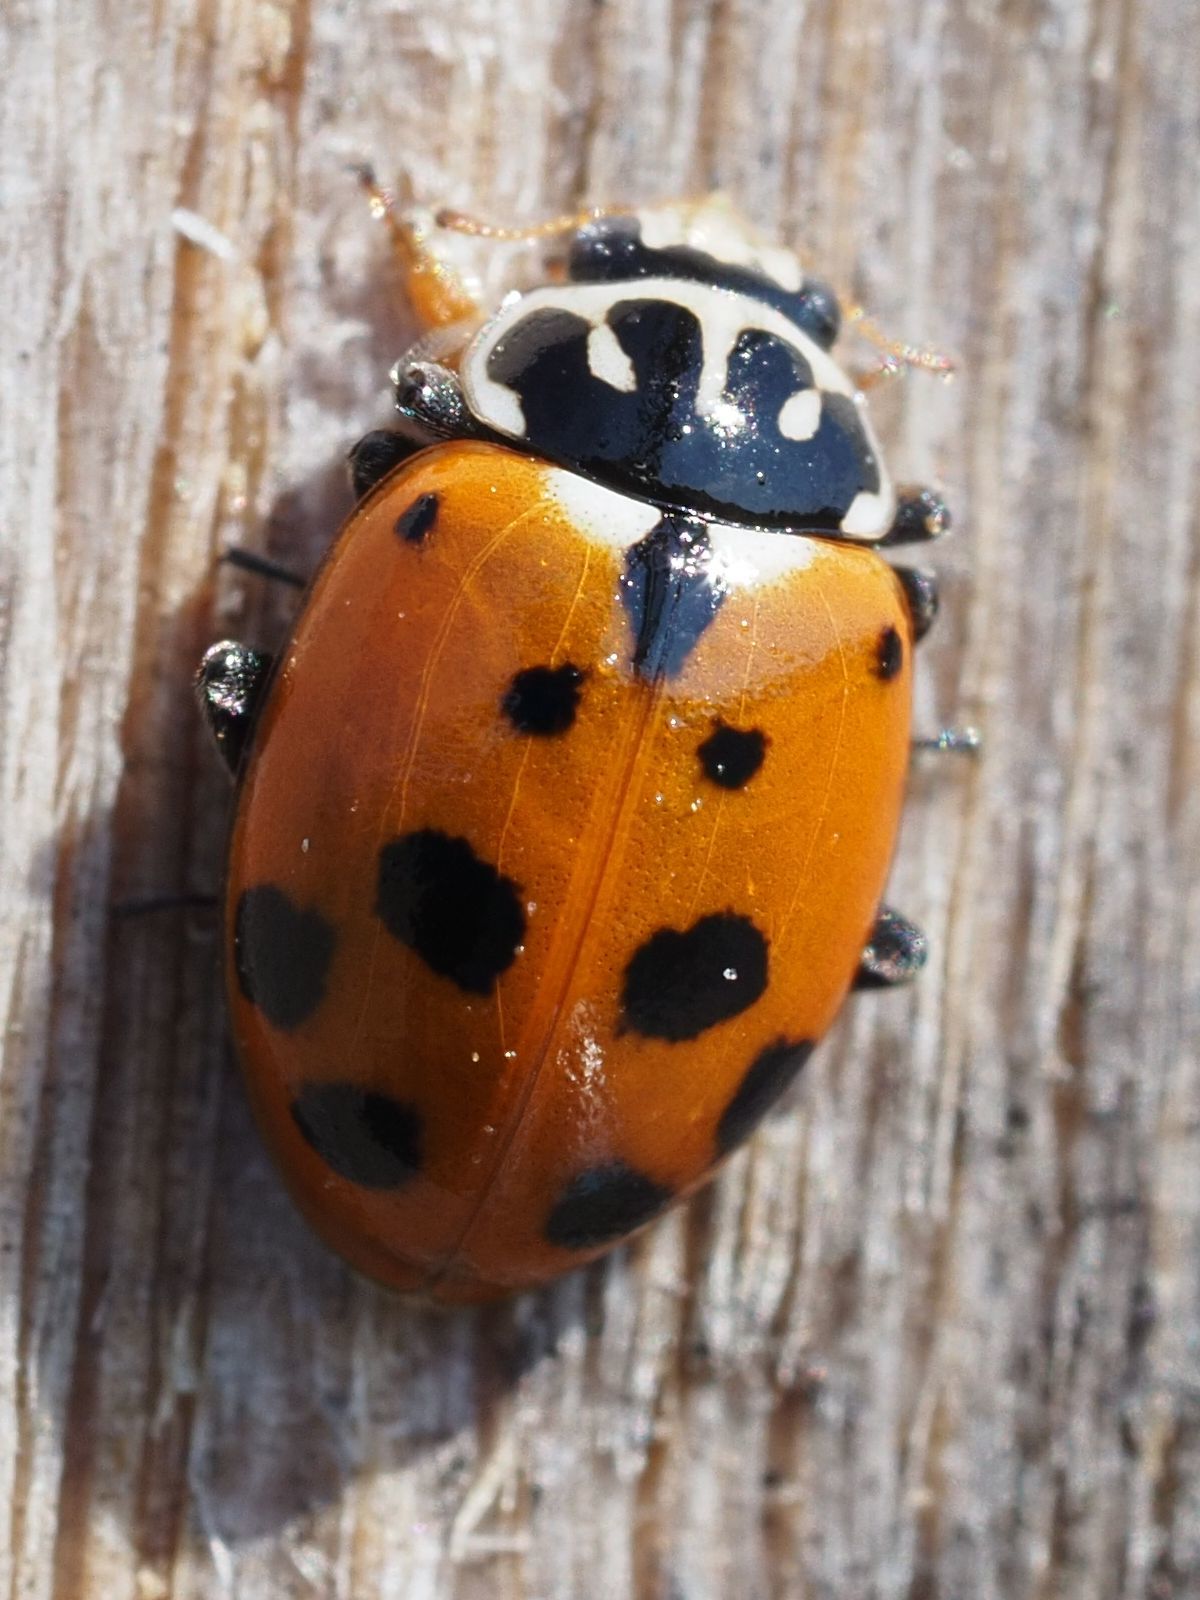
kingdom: Animalia
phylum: Arthropoda
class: Insecta
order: Coleoptera
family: Coccinellidae
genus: Hippodamia
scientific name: Hippodamia variegata
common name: Ladybird beetle
